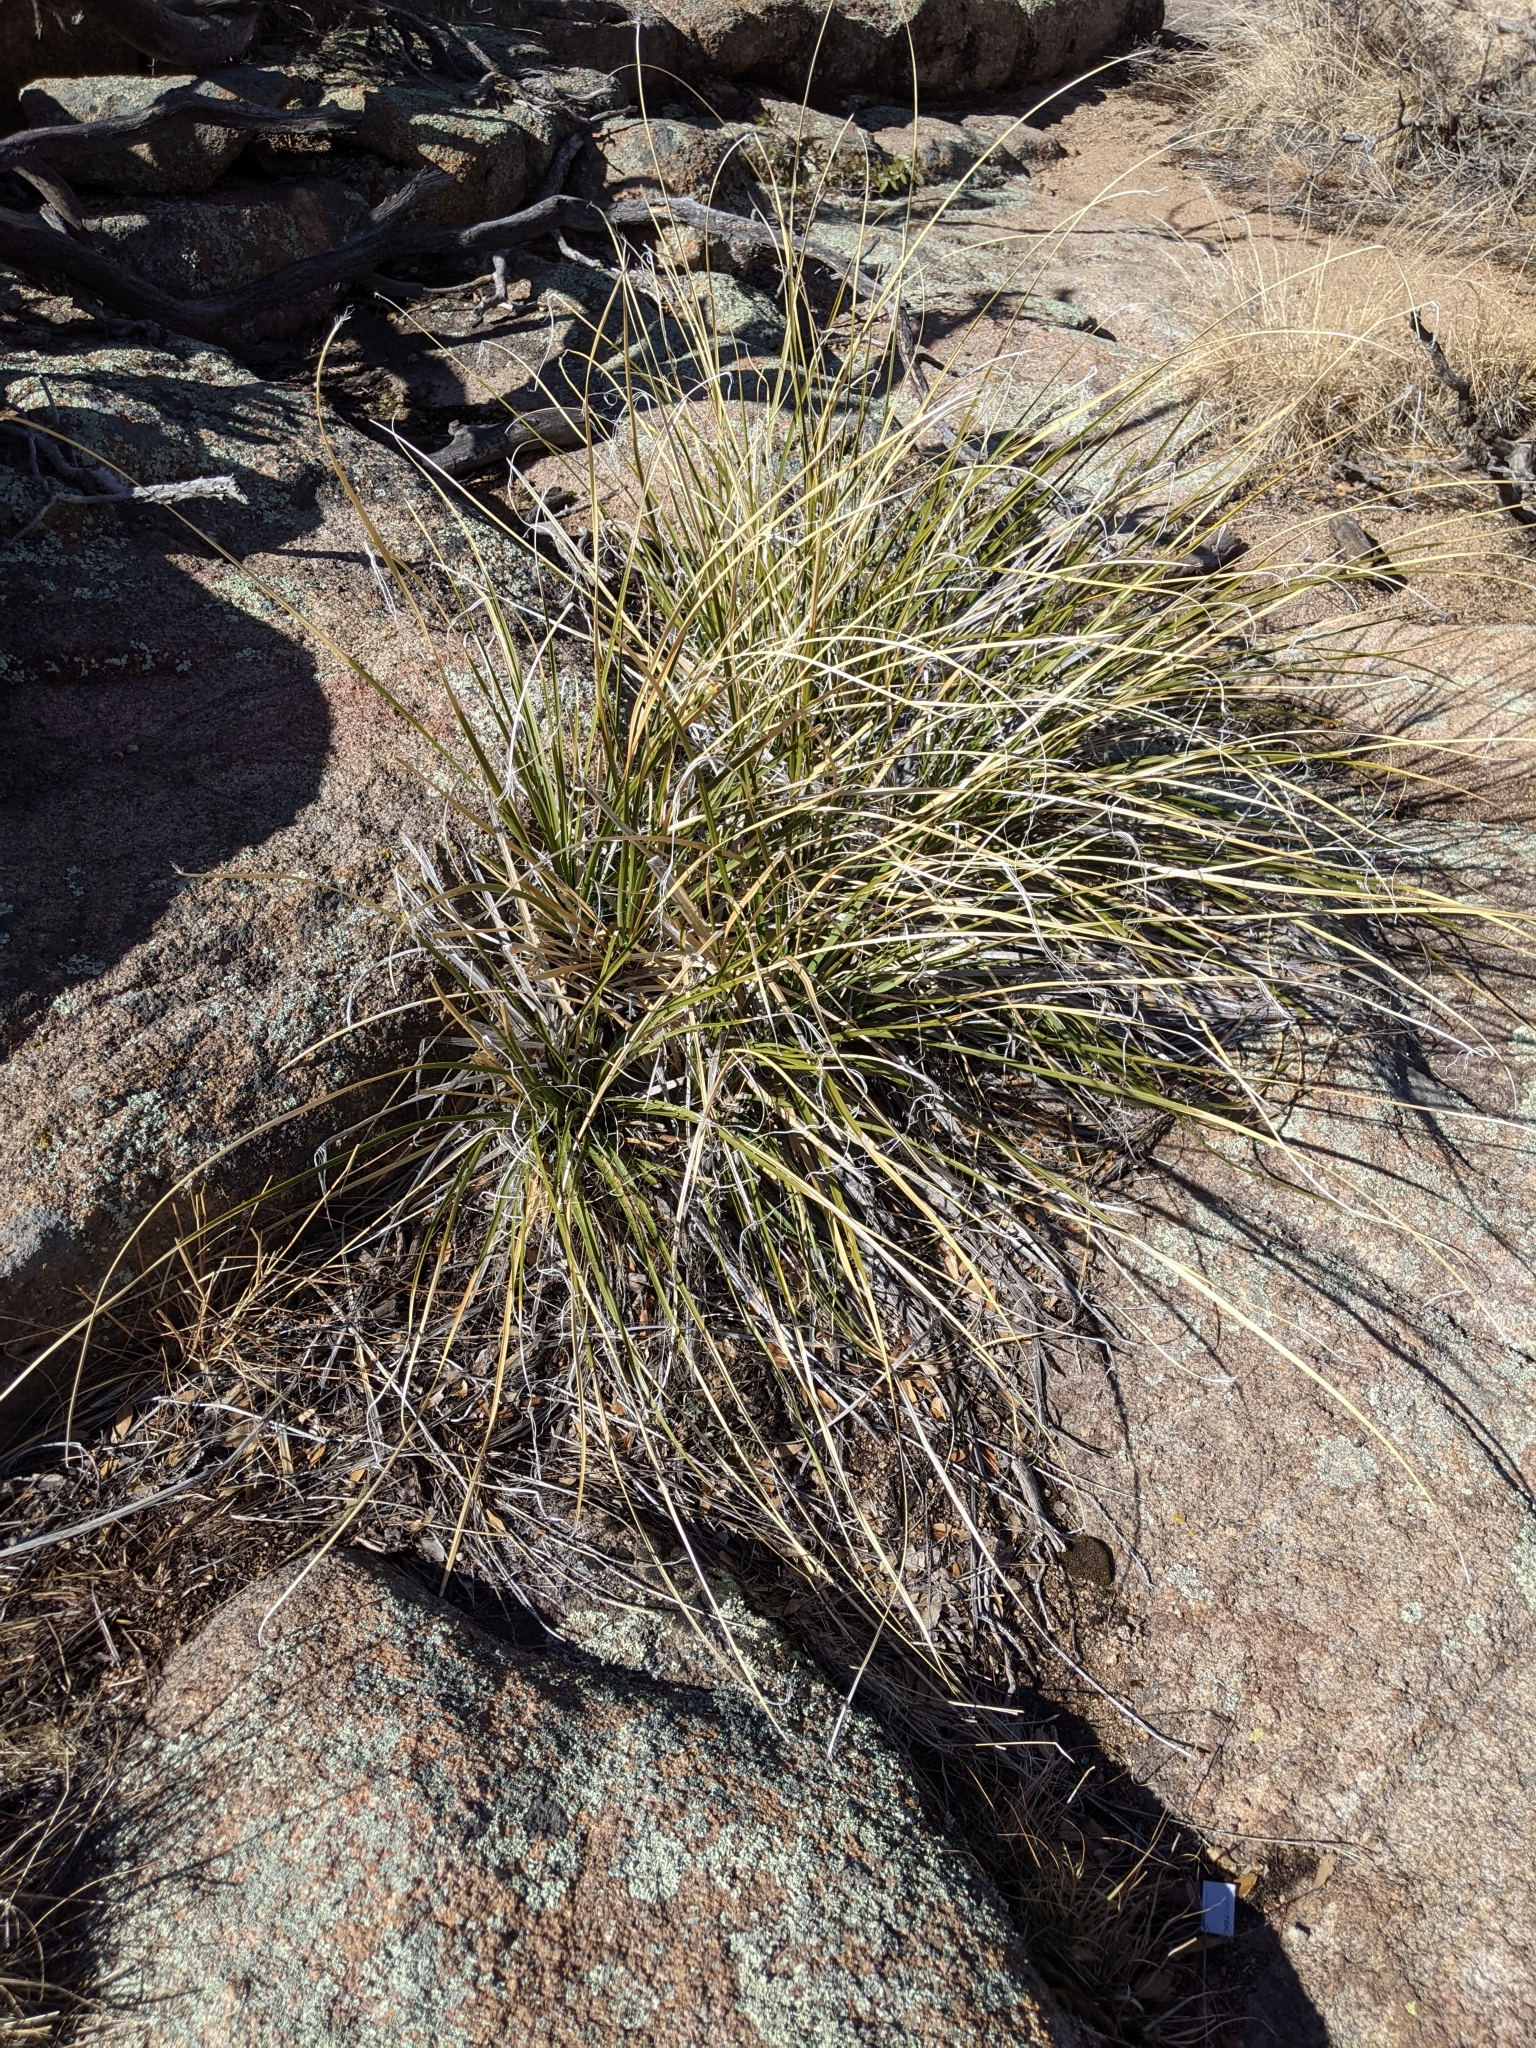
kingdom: Plantae
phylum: Tracheophyta
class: Liliopsida
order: Asparagales
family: Asparagaceae
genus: Nolina
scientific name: Nolina microcarpa
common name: Bear-grass
